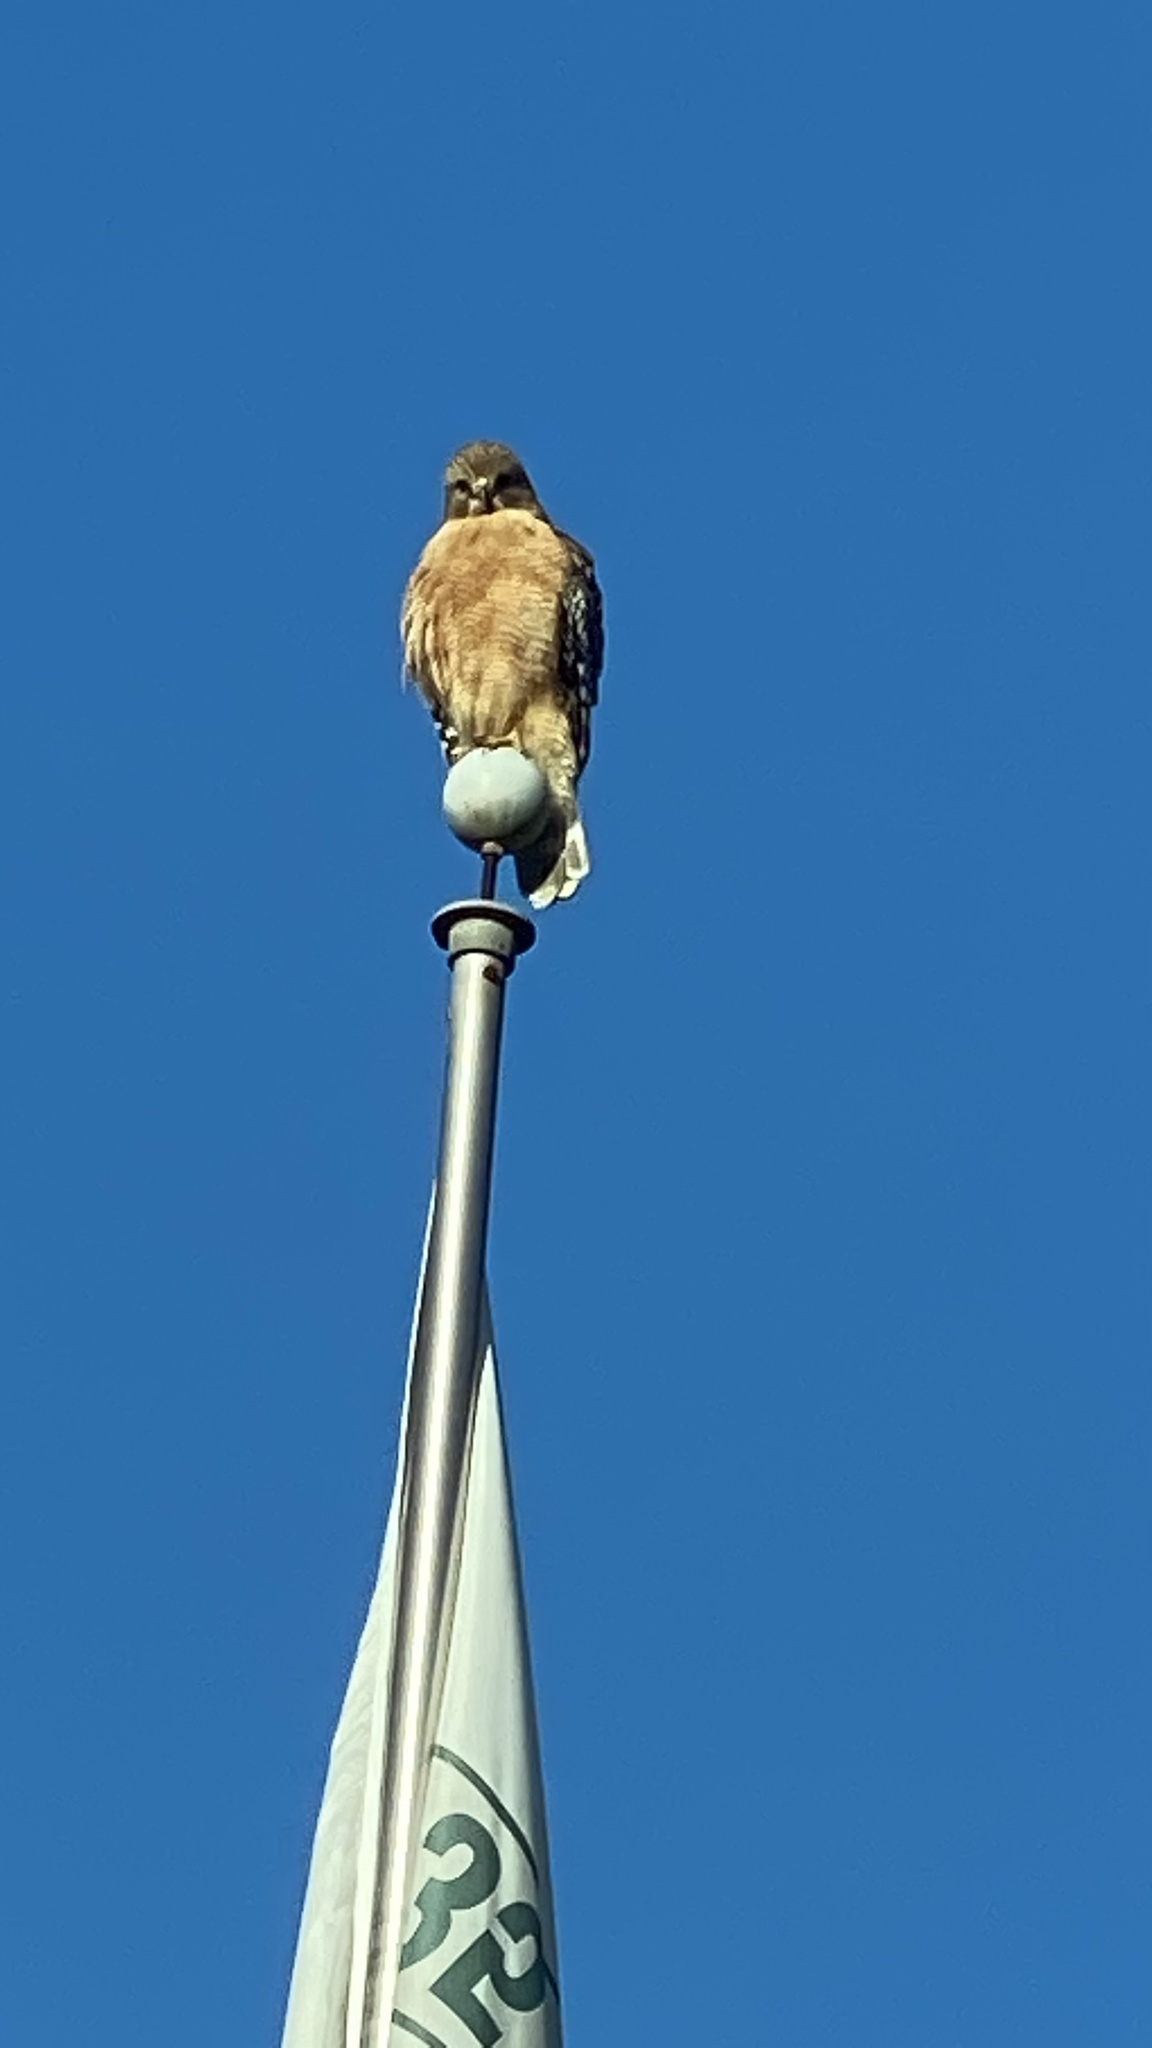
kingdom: Animalia
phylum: Chordata
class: Aves
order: Accipitriformes
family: Accipitridae
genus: Buteo
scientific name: Buteo lineatus
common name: Red-shouldered hawk
